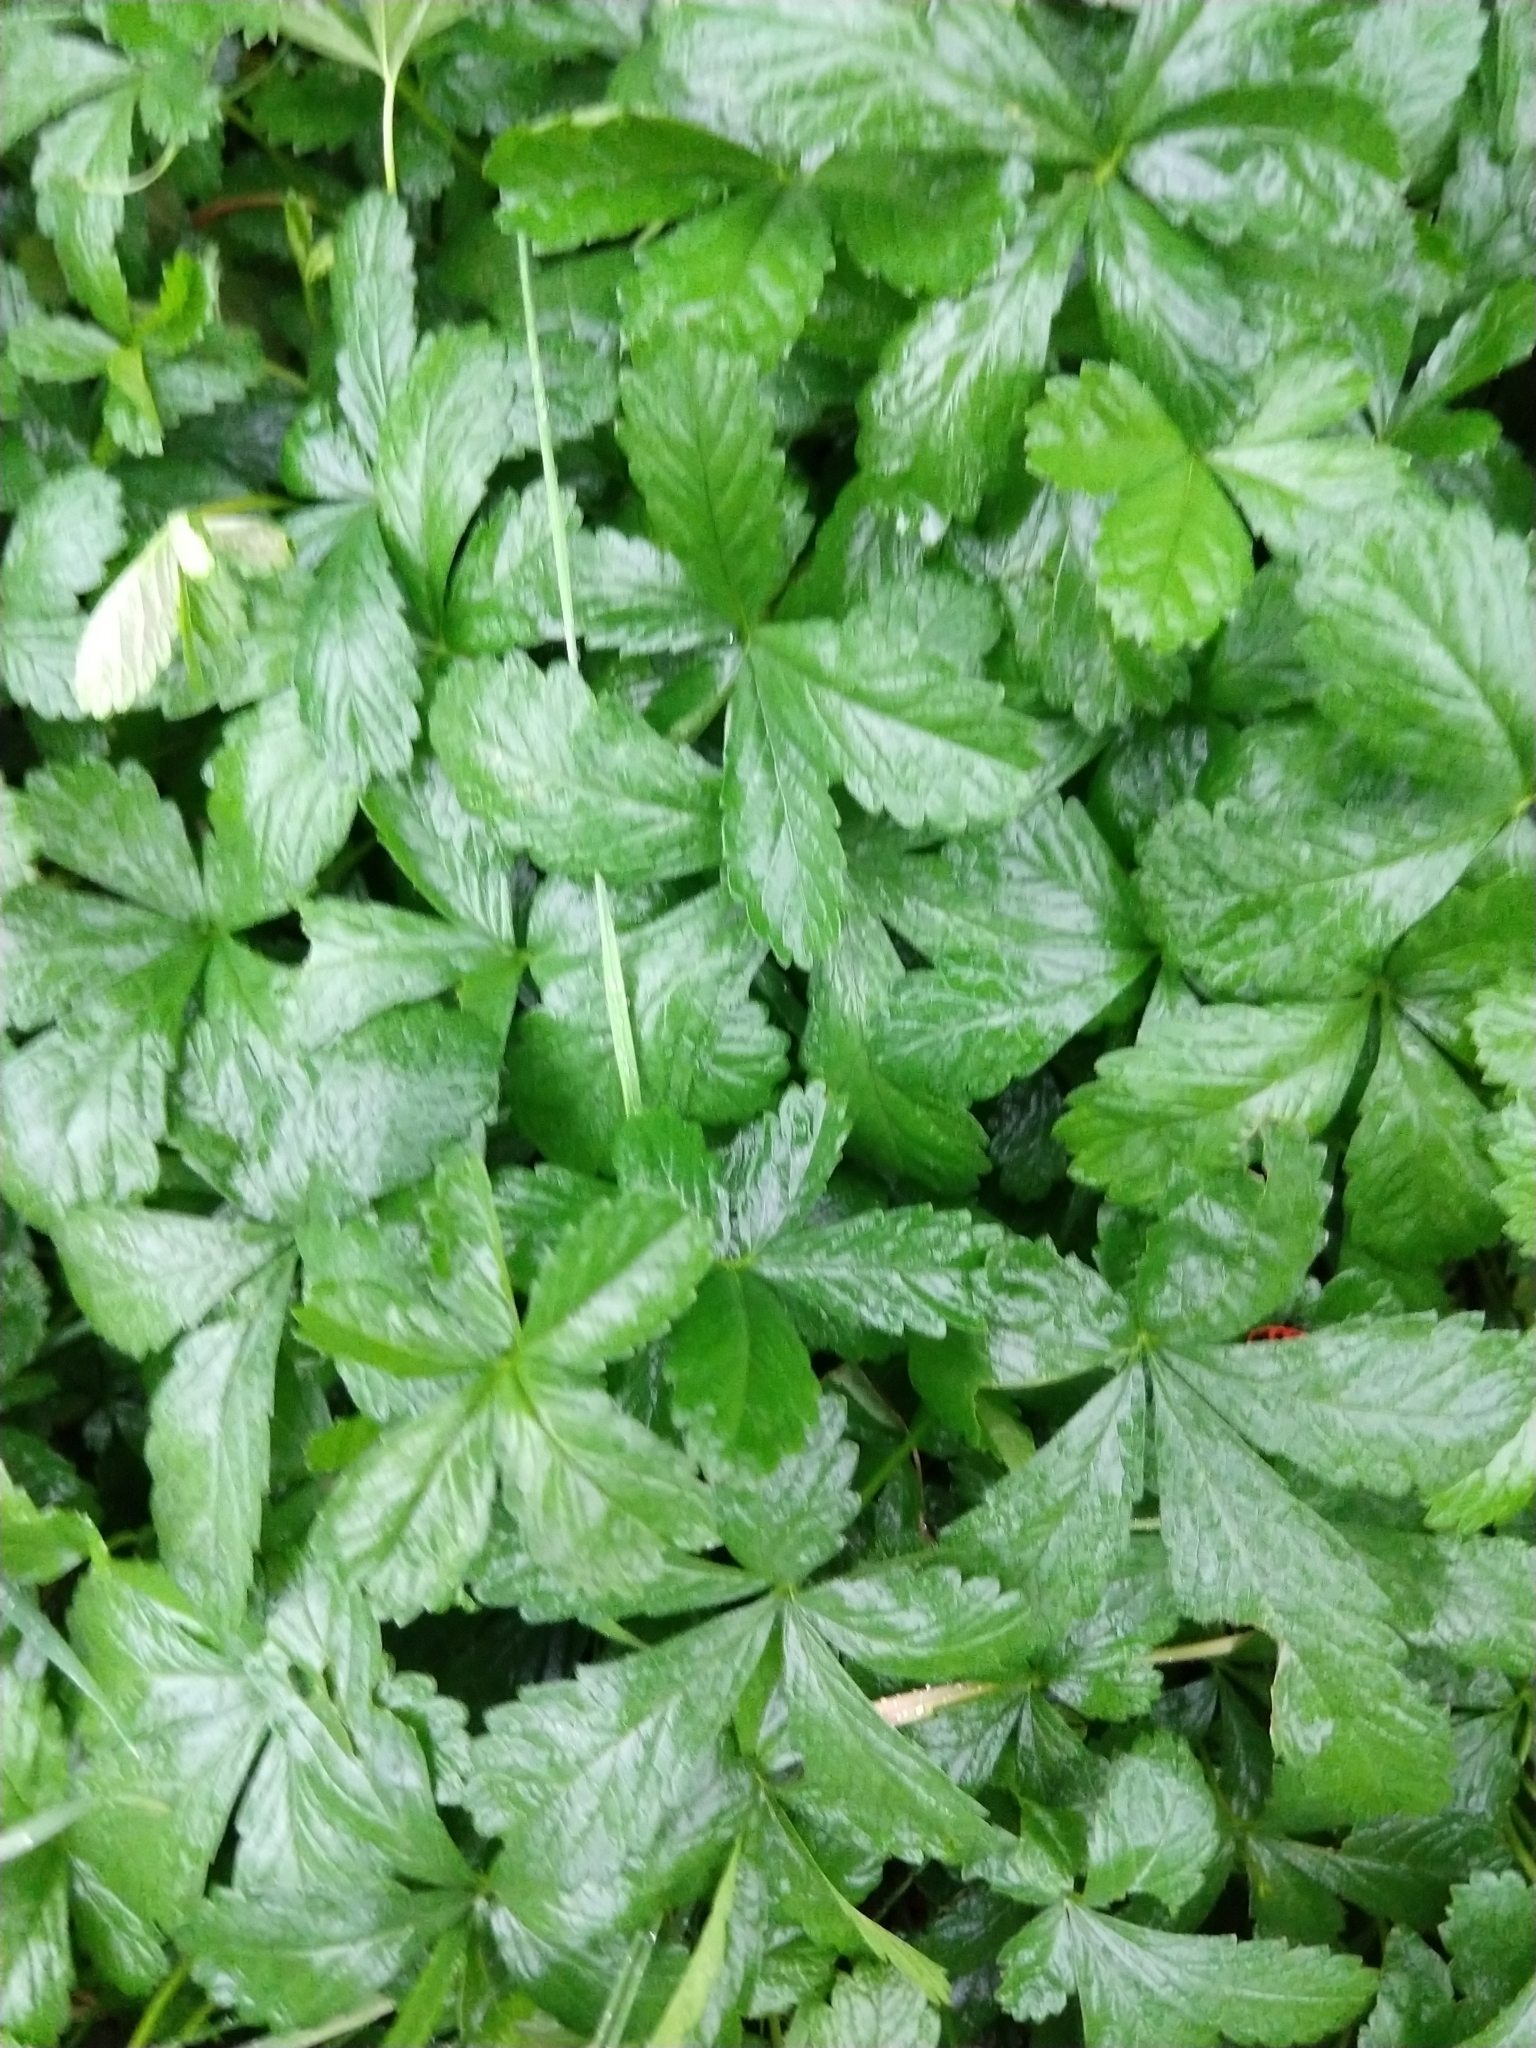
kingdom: Plantae
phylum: Tracheophyta
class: Magnoliopsida
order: Rosales
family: Rosaceae
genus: Potentilla
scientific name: Potentilla reptans
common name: Creeping cinquefoil
